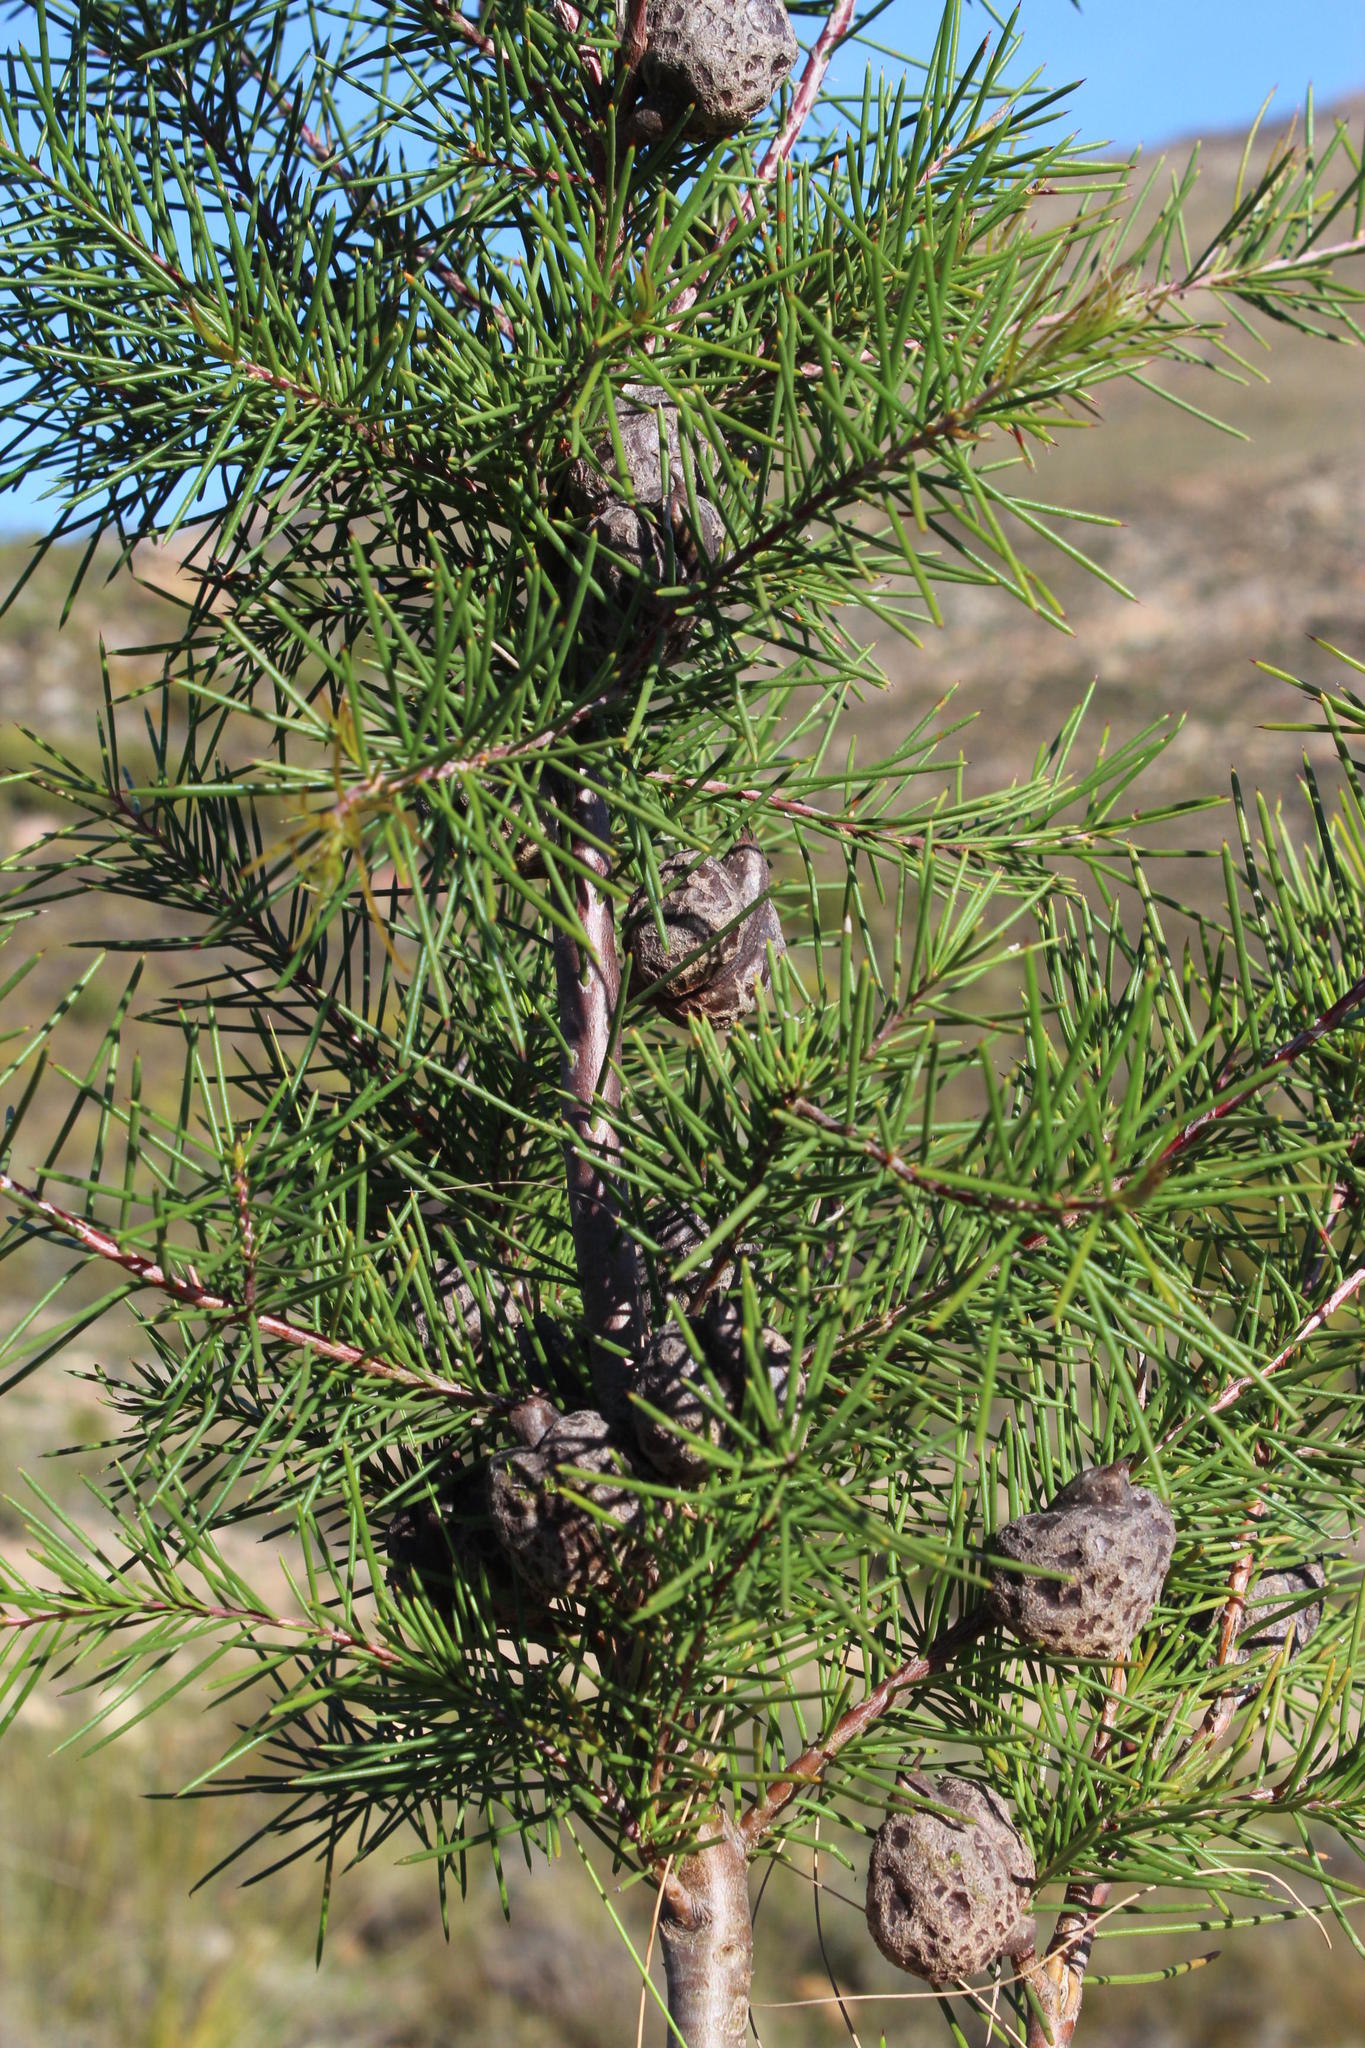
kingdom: Plantae
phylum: Tracheophyta
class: Magnoliopsida
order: Proteales
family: Proteaceae
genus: Hakea
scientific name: Hakea sericea
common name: Needle bush
